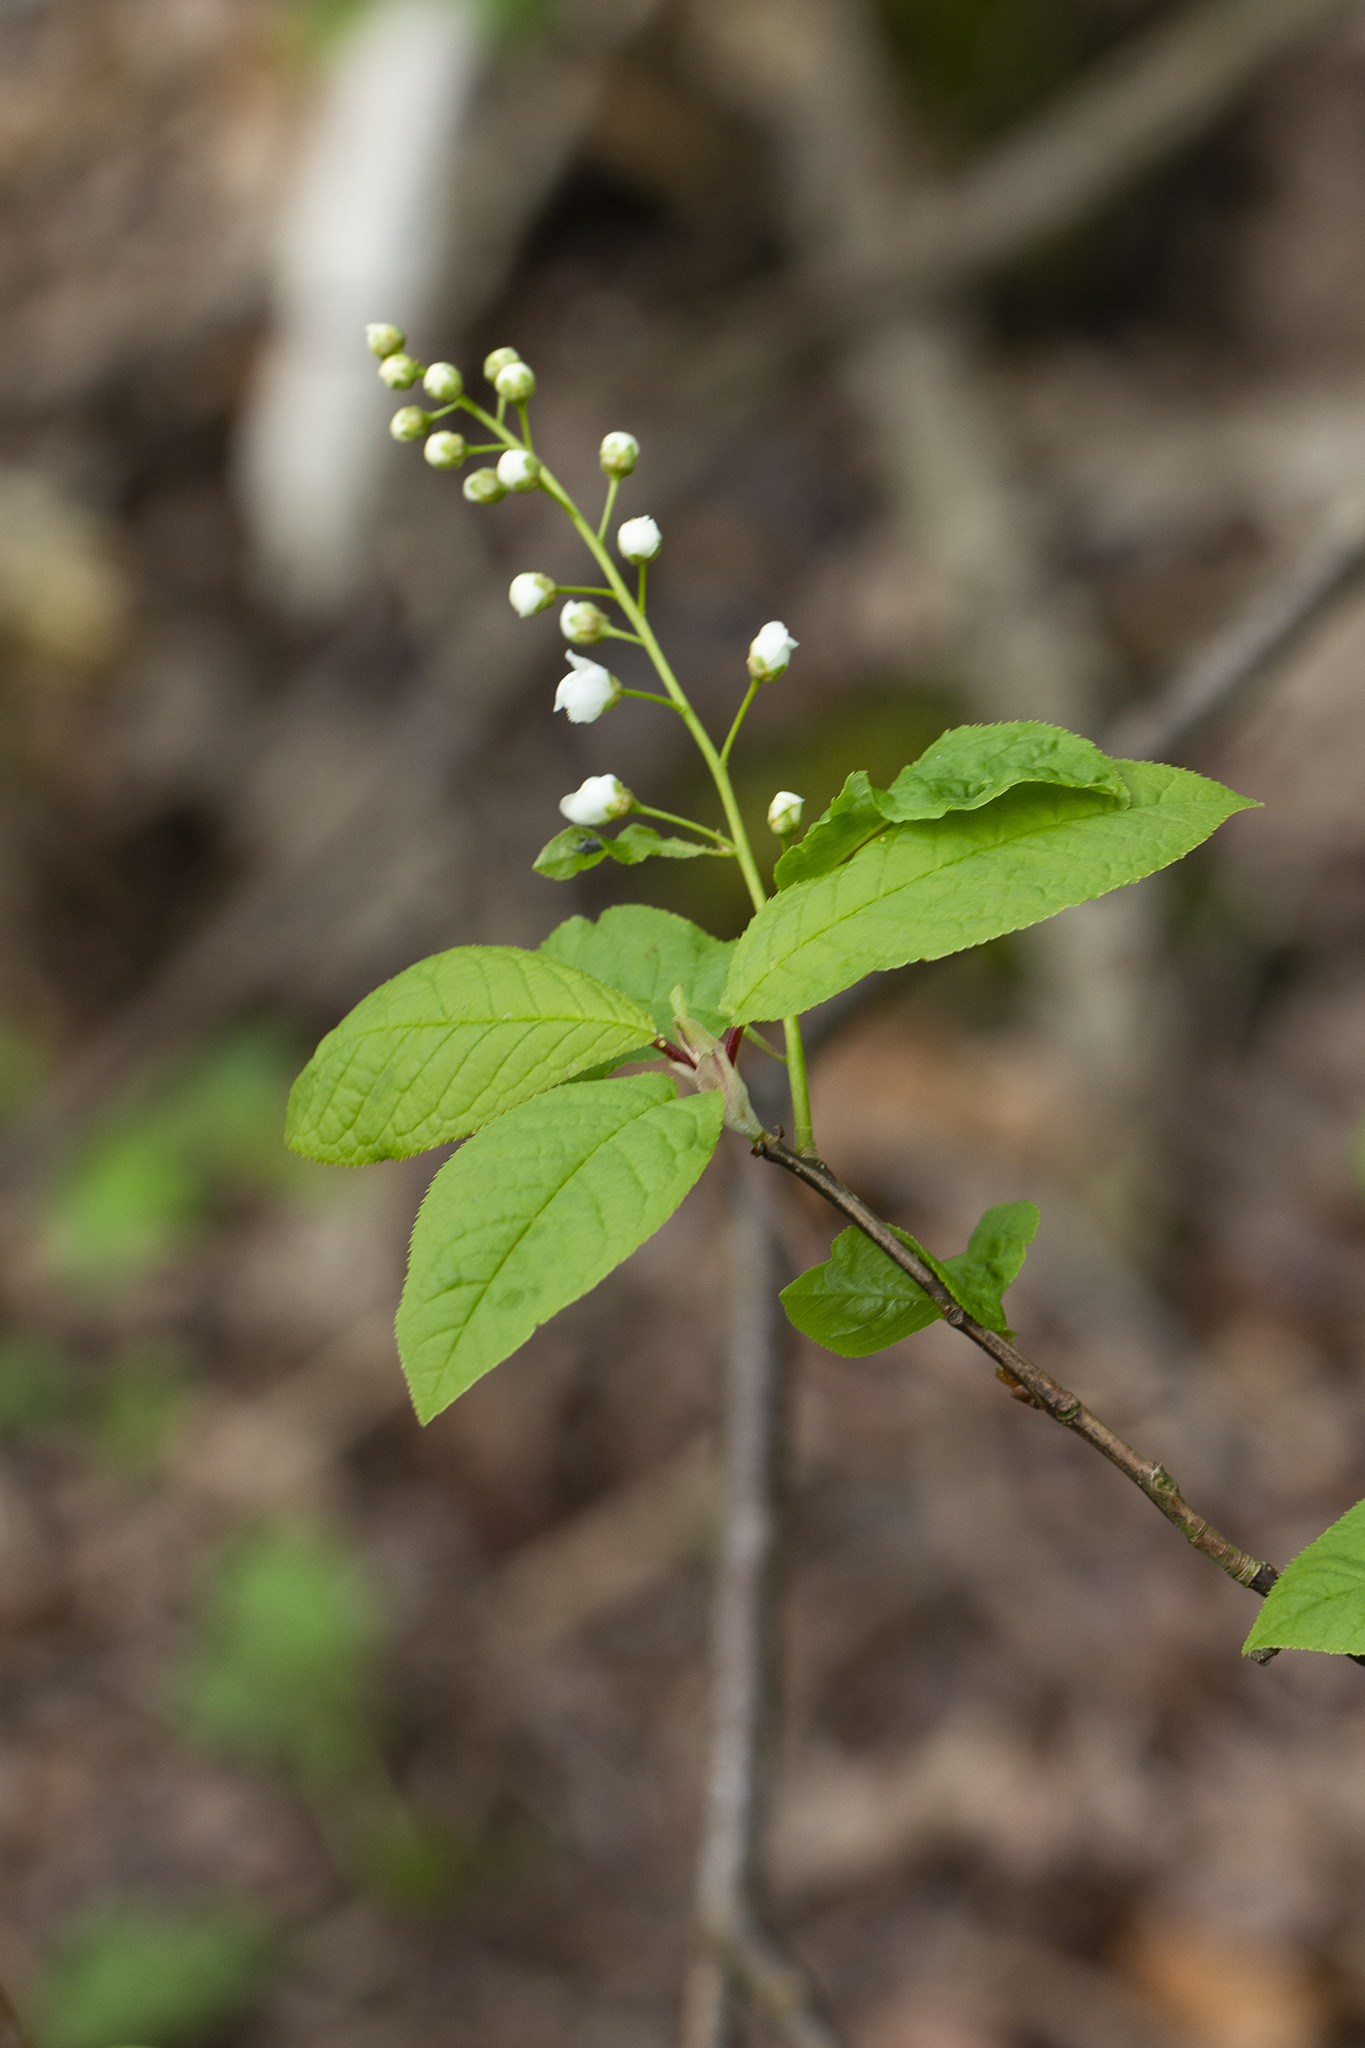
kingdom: Plantae
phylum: Tracheophyta
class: Magnoliopsida
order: Rosales
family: Rosaceae
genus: Prunus
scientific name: Prunus padus
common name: Bird cherry
